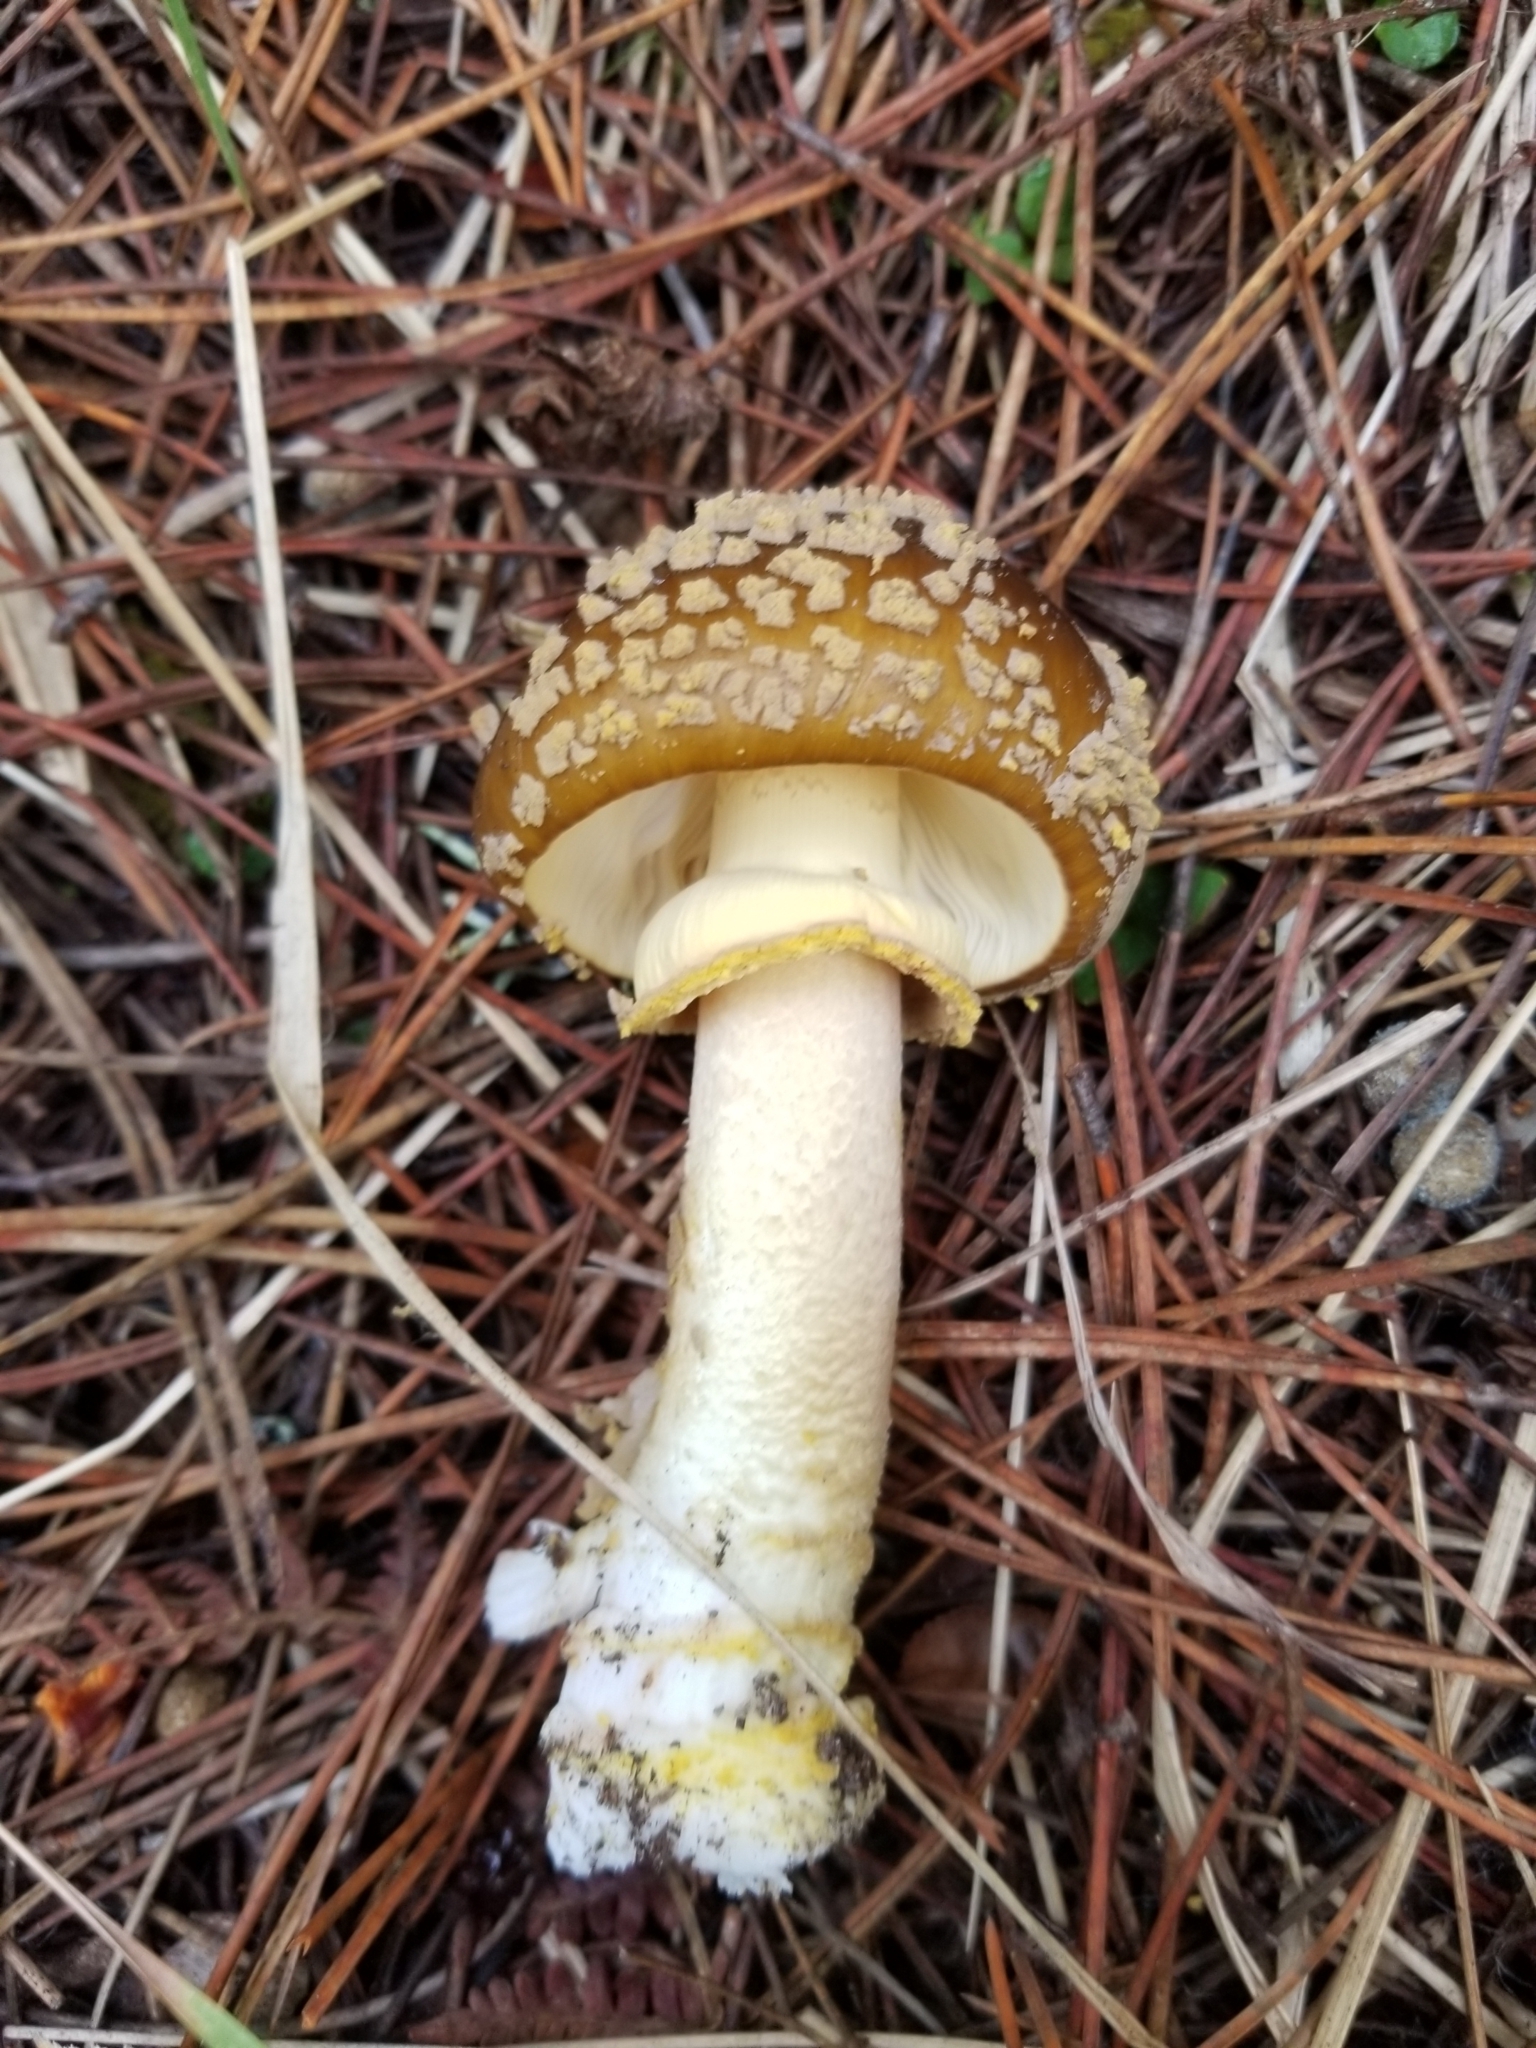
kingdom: Fungi
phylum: Basidiomycota
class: Agaricomycetes
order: Agaricales
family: Amanitaceae
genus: Amanita
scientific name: Amanita augusta
